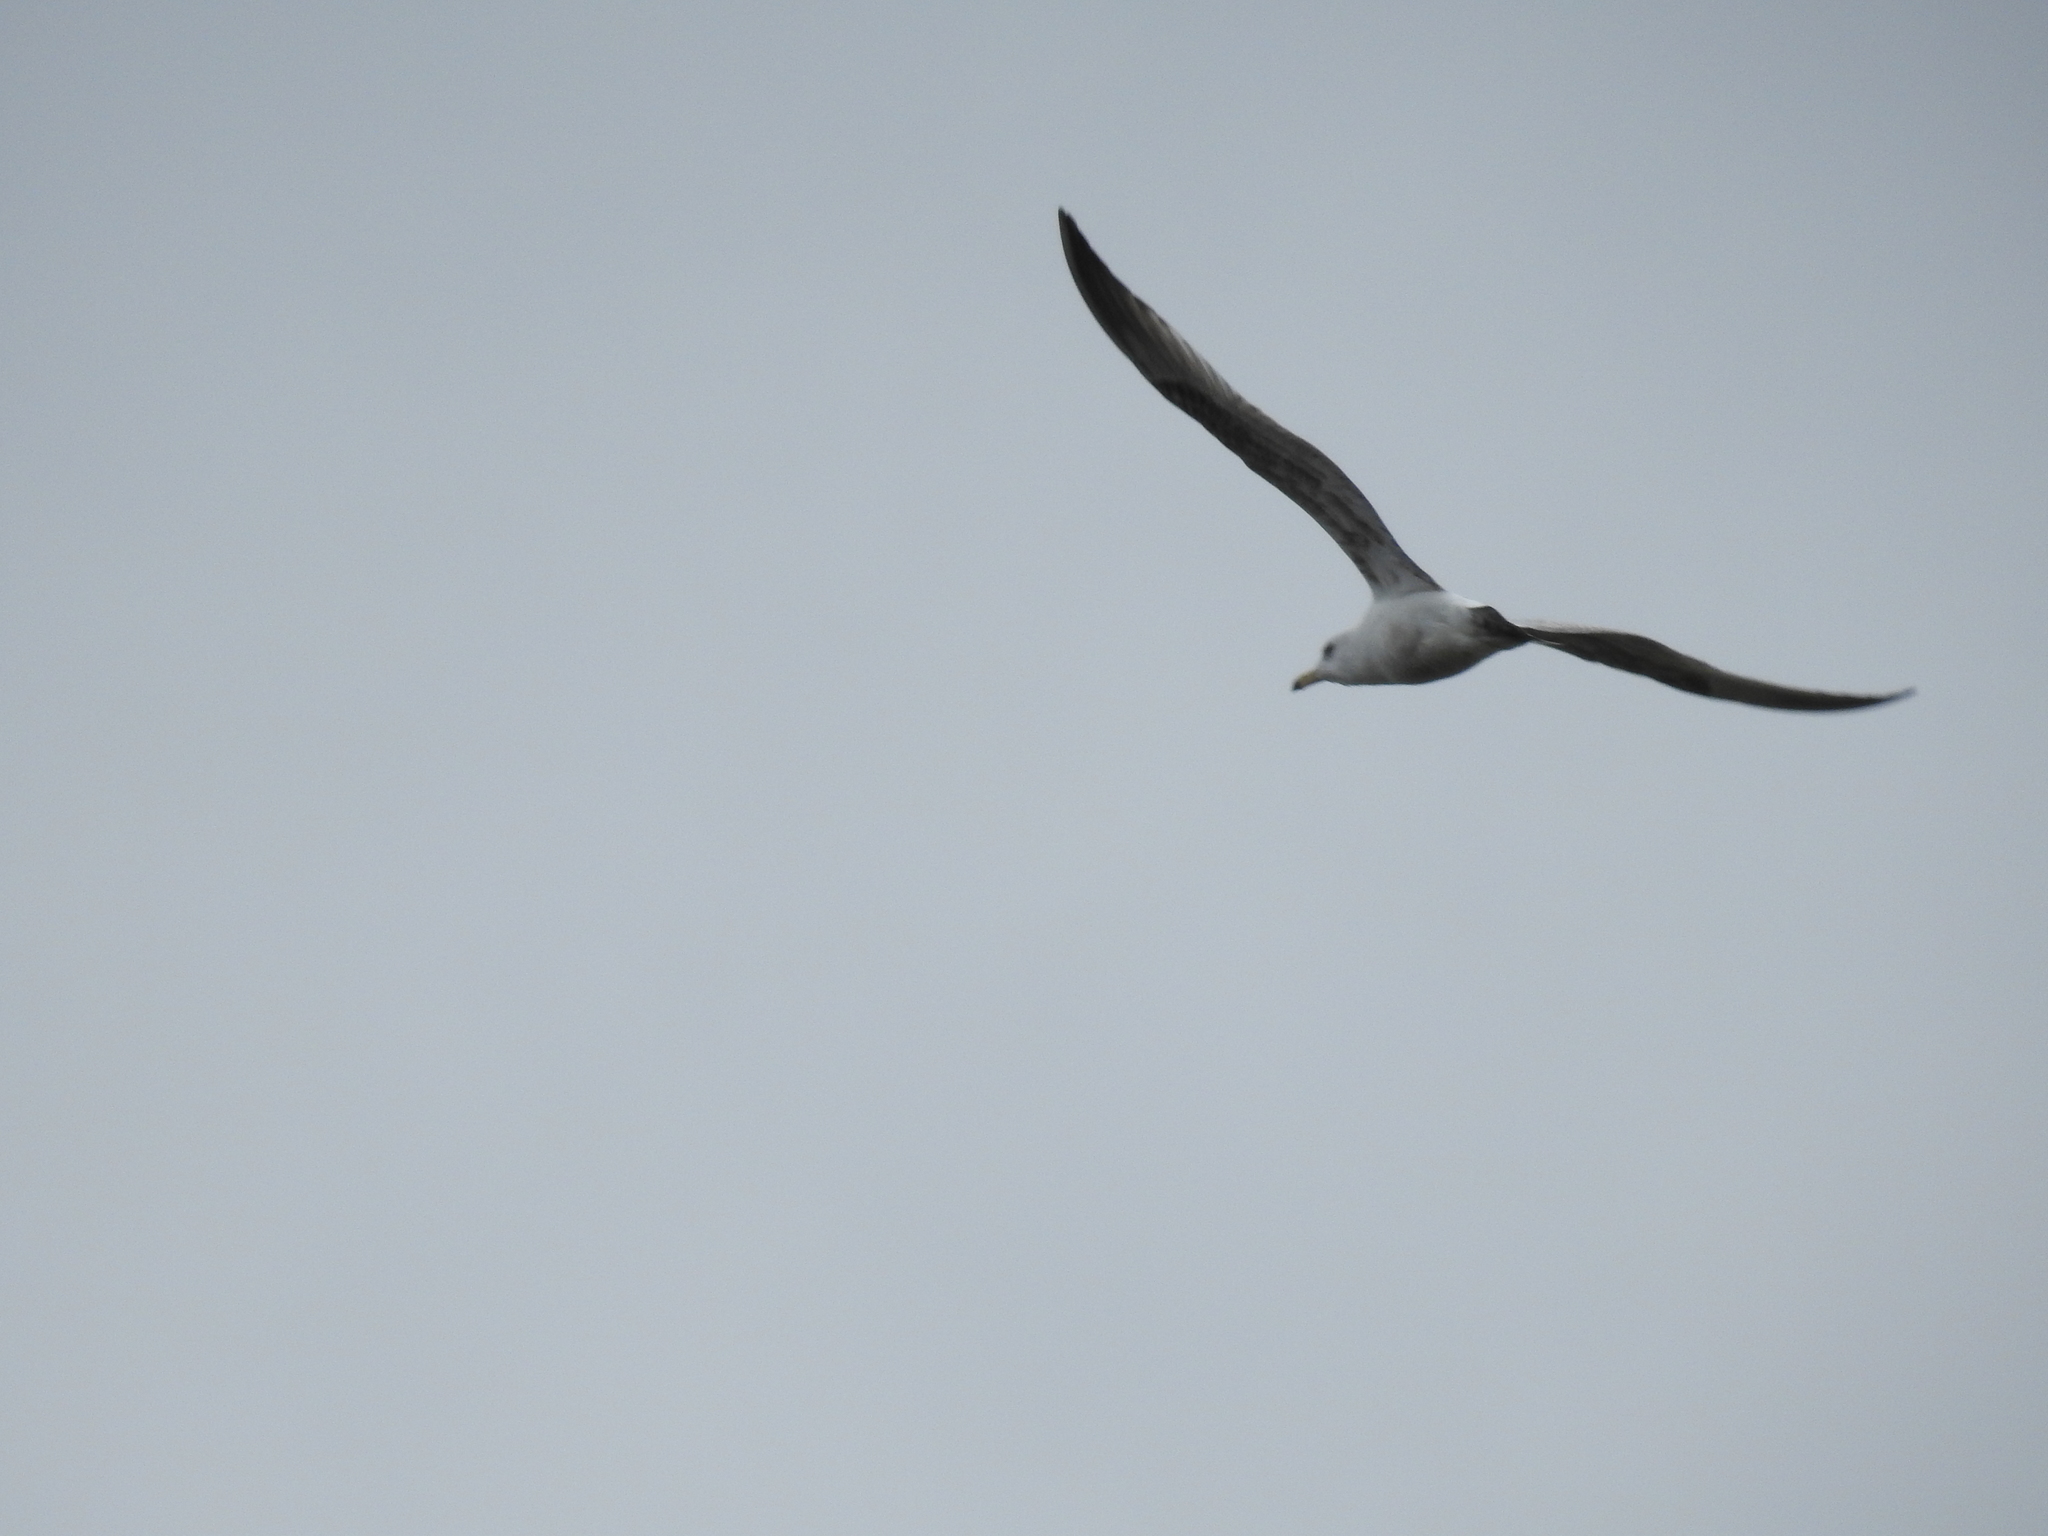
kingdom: Animalia
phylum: Chordata
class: Aves
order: Charadriiformes
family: Laridae
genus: Larus
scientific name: Larus delawarensis
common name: Ring-billed gull
